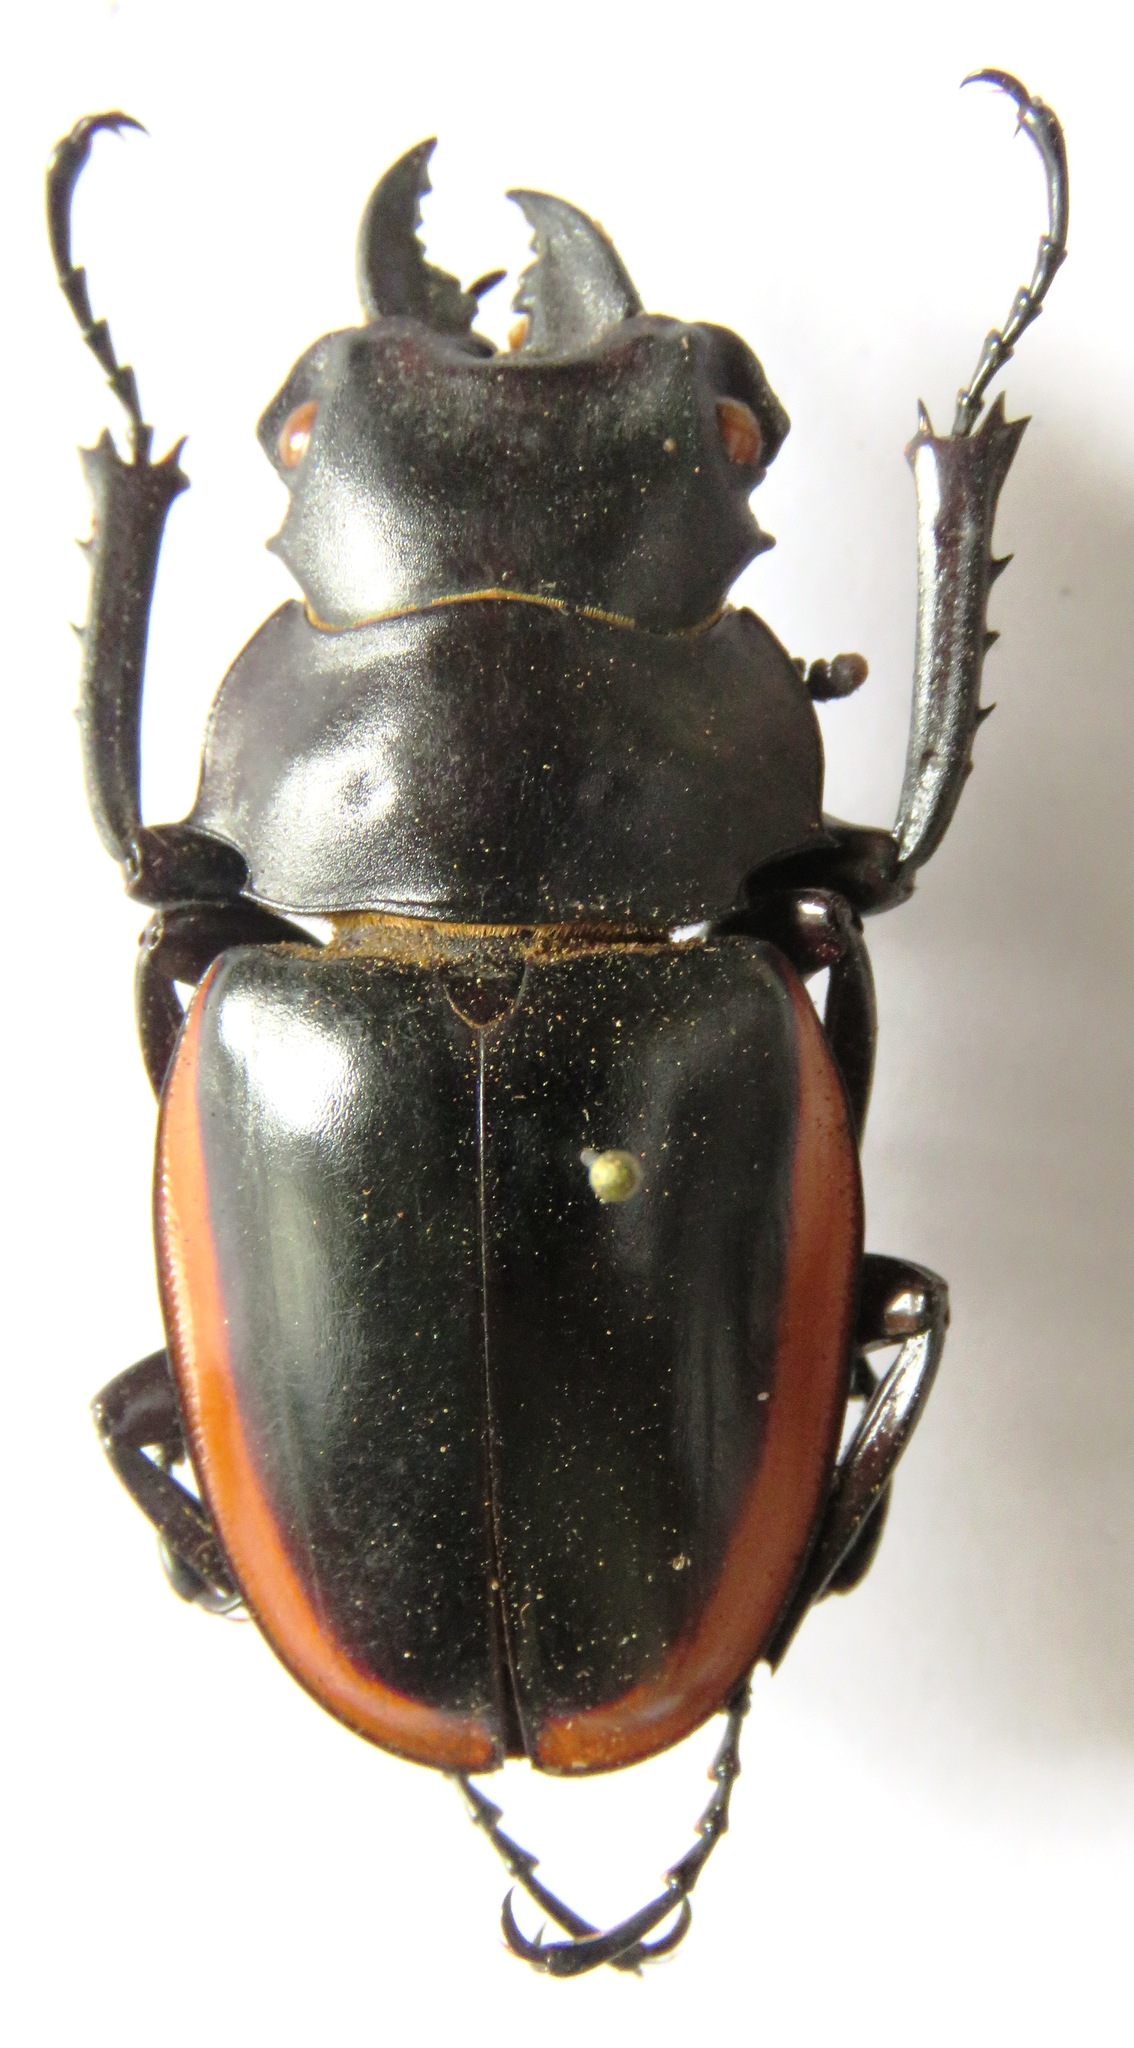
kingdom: Animalia
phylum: Arthropoda
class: Insecta
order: Coleoptera
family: Lucanidae
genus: Odontolabis
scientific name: Odontolabis cuvera
